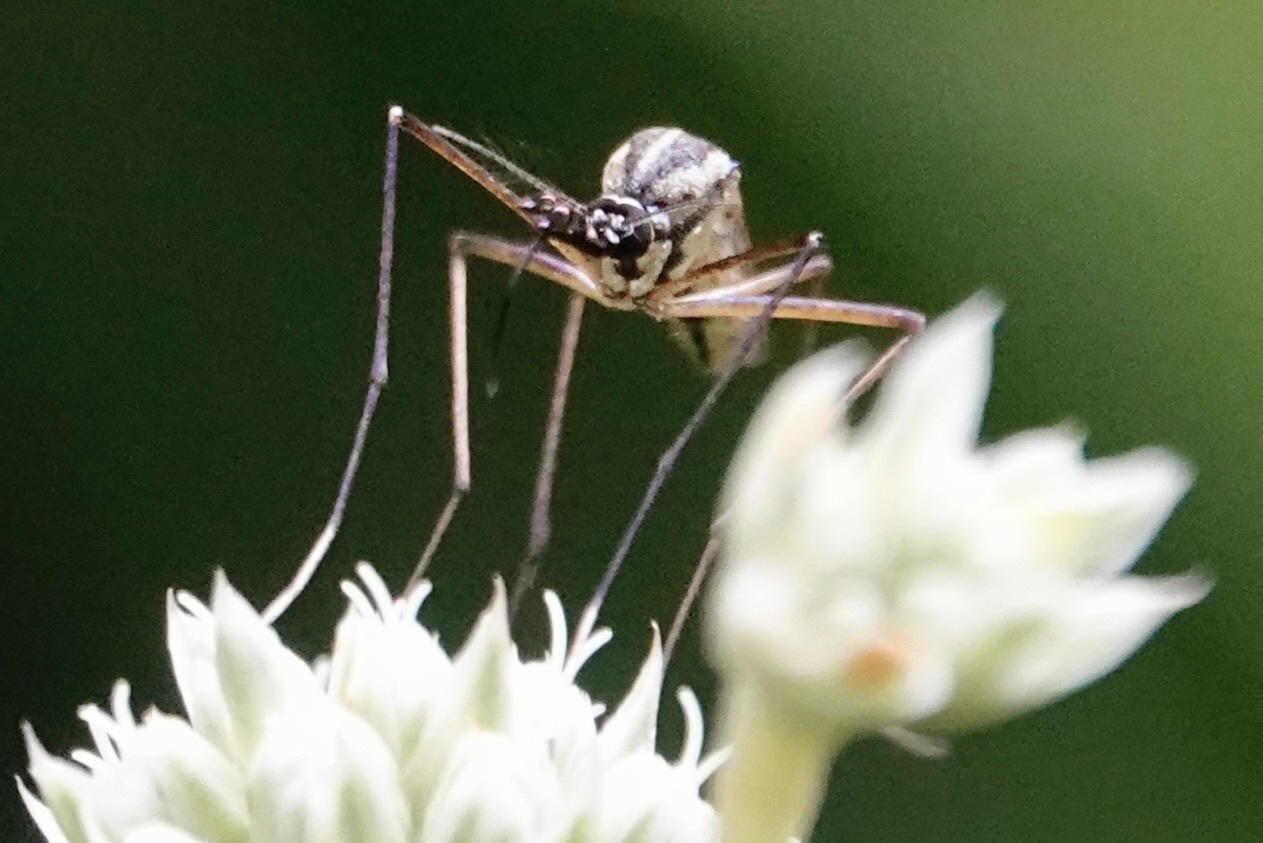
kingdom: Animalia
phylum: Arthropoda
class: Insecta
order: Diptera
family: Culicidae
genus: Toxorhynchites
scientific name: Toxorhynchites rutilus
